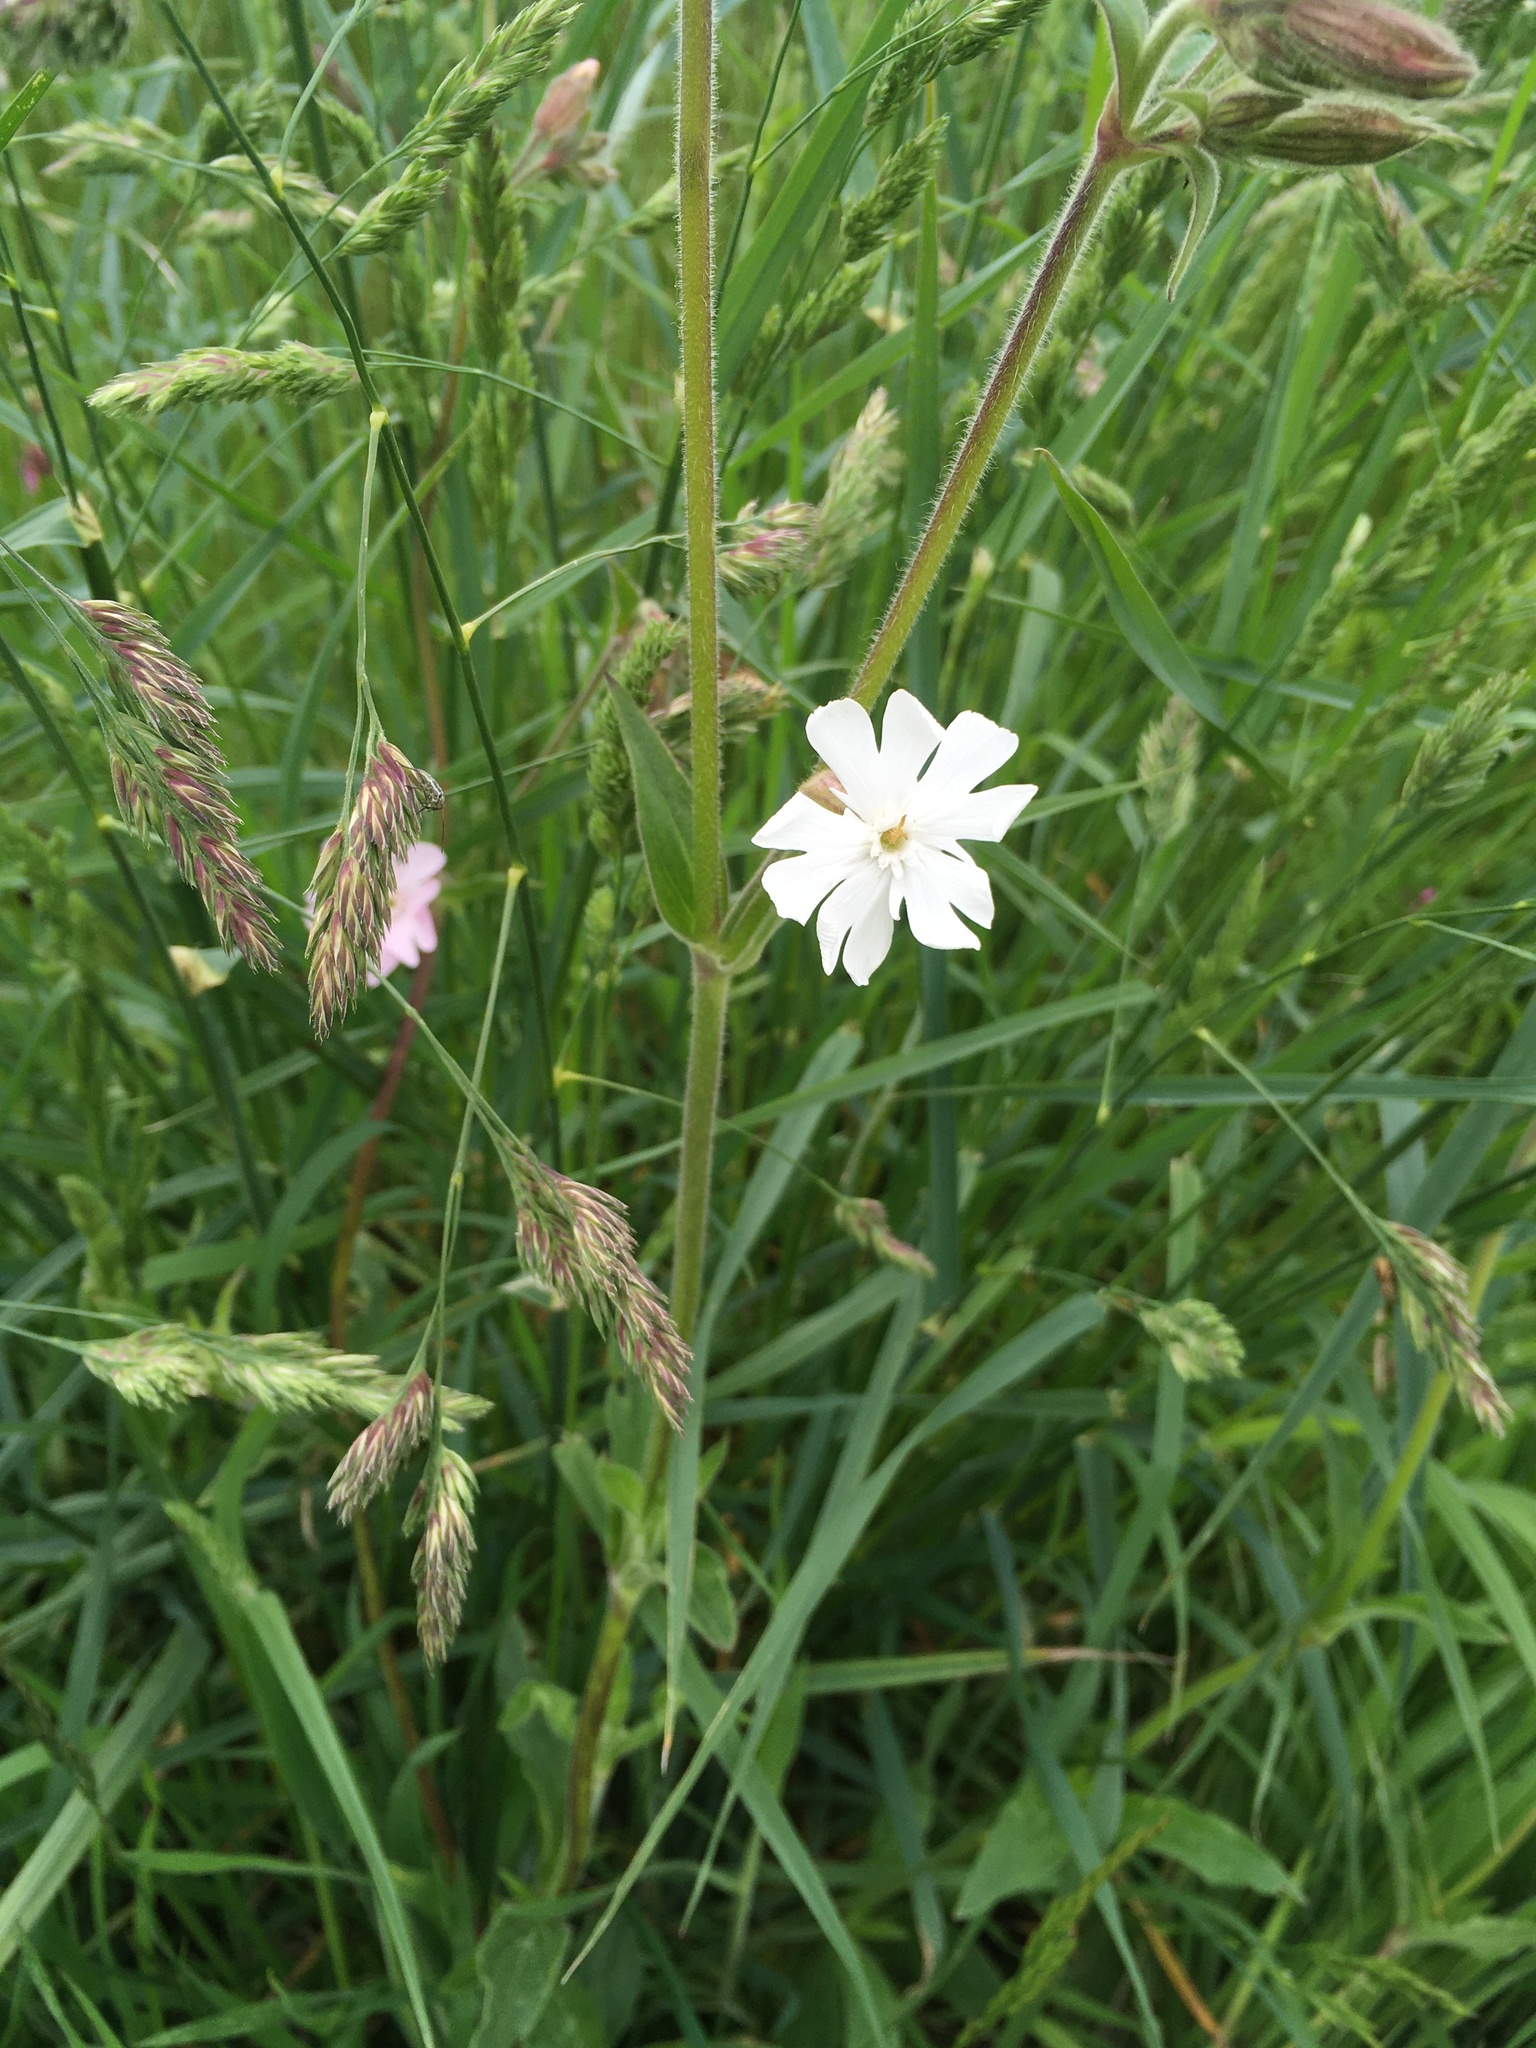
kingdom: Plantae
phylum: Tracheophyta
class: Magnoliopsida
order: Caryophyllales
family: Caryophyllaceae
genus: Silene
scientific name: Silene latifolia
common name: White campion
